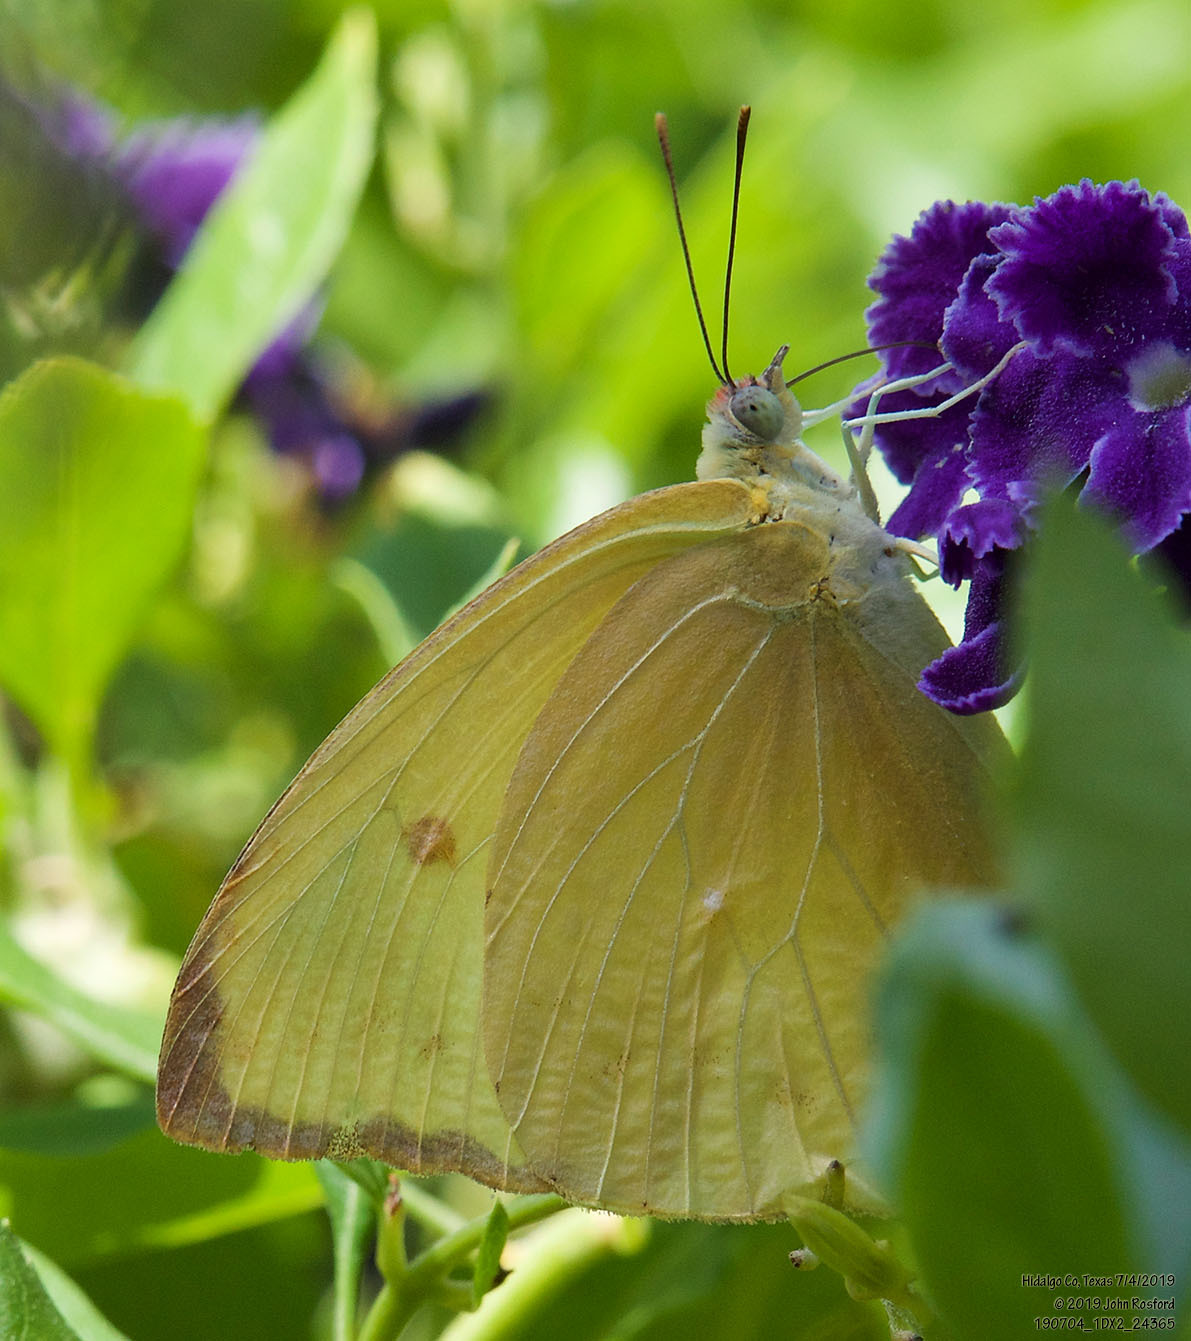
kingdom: Animalia
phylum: Arthropoda
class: Insecta
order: Lepidoptera
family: Pieridae
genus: Aphrissa
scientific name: Aphrissa statira
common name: Statira sulphur
